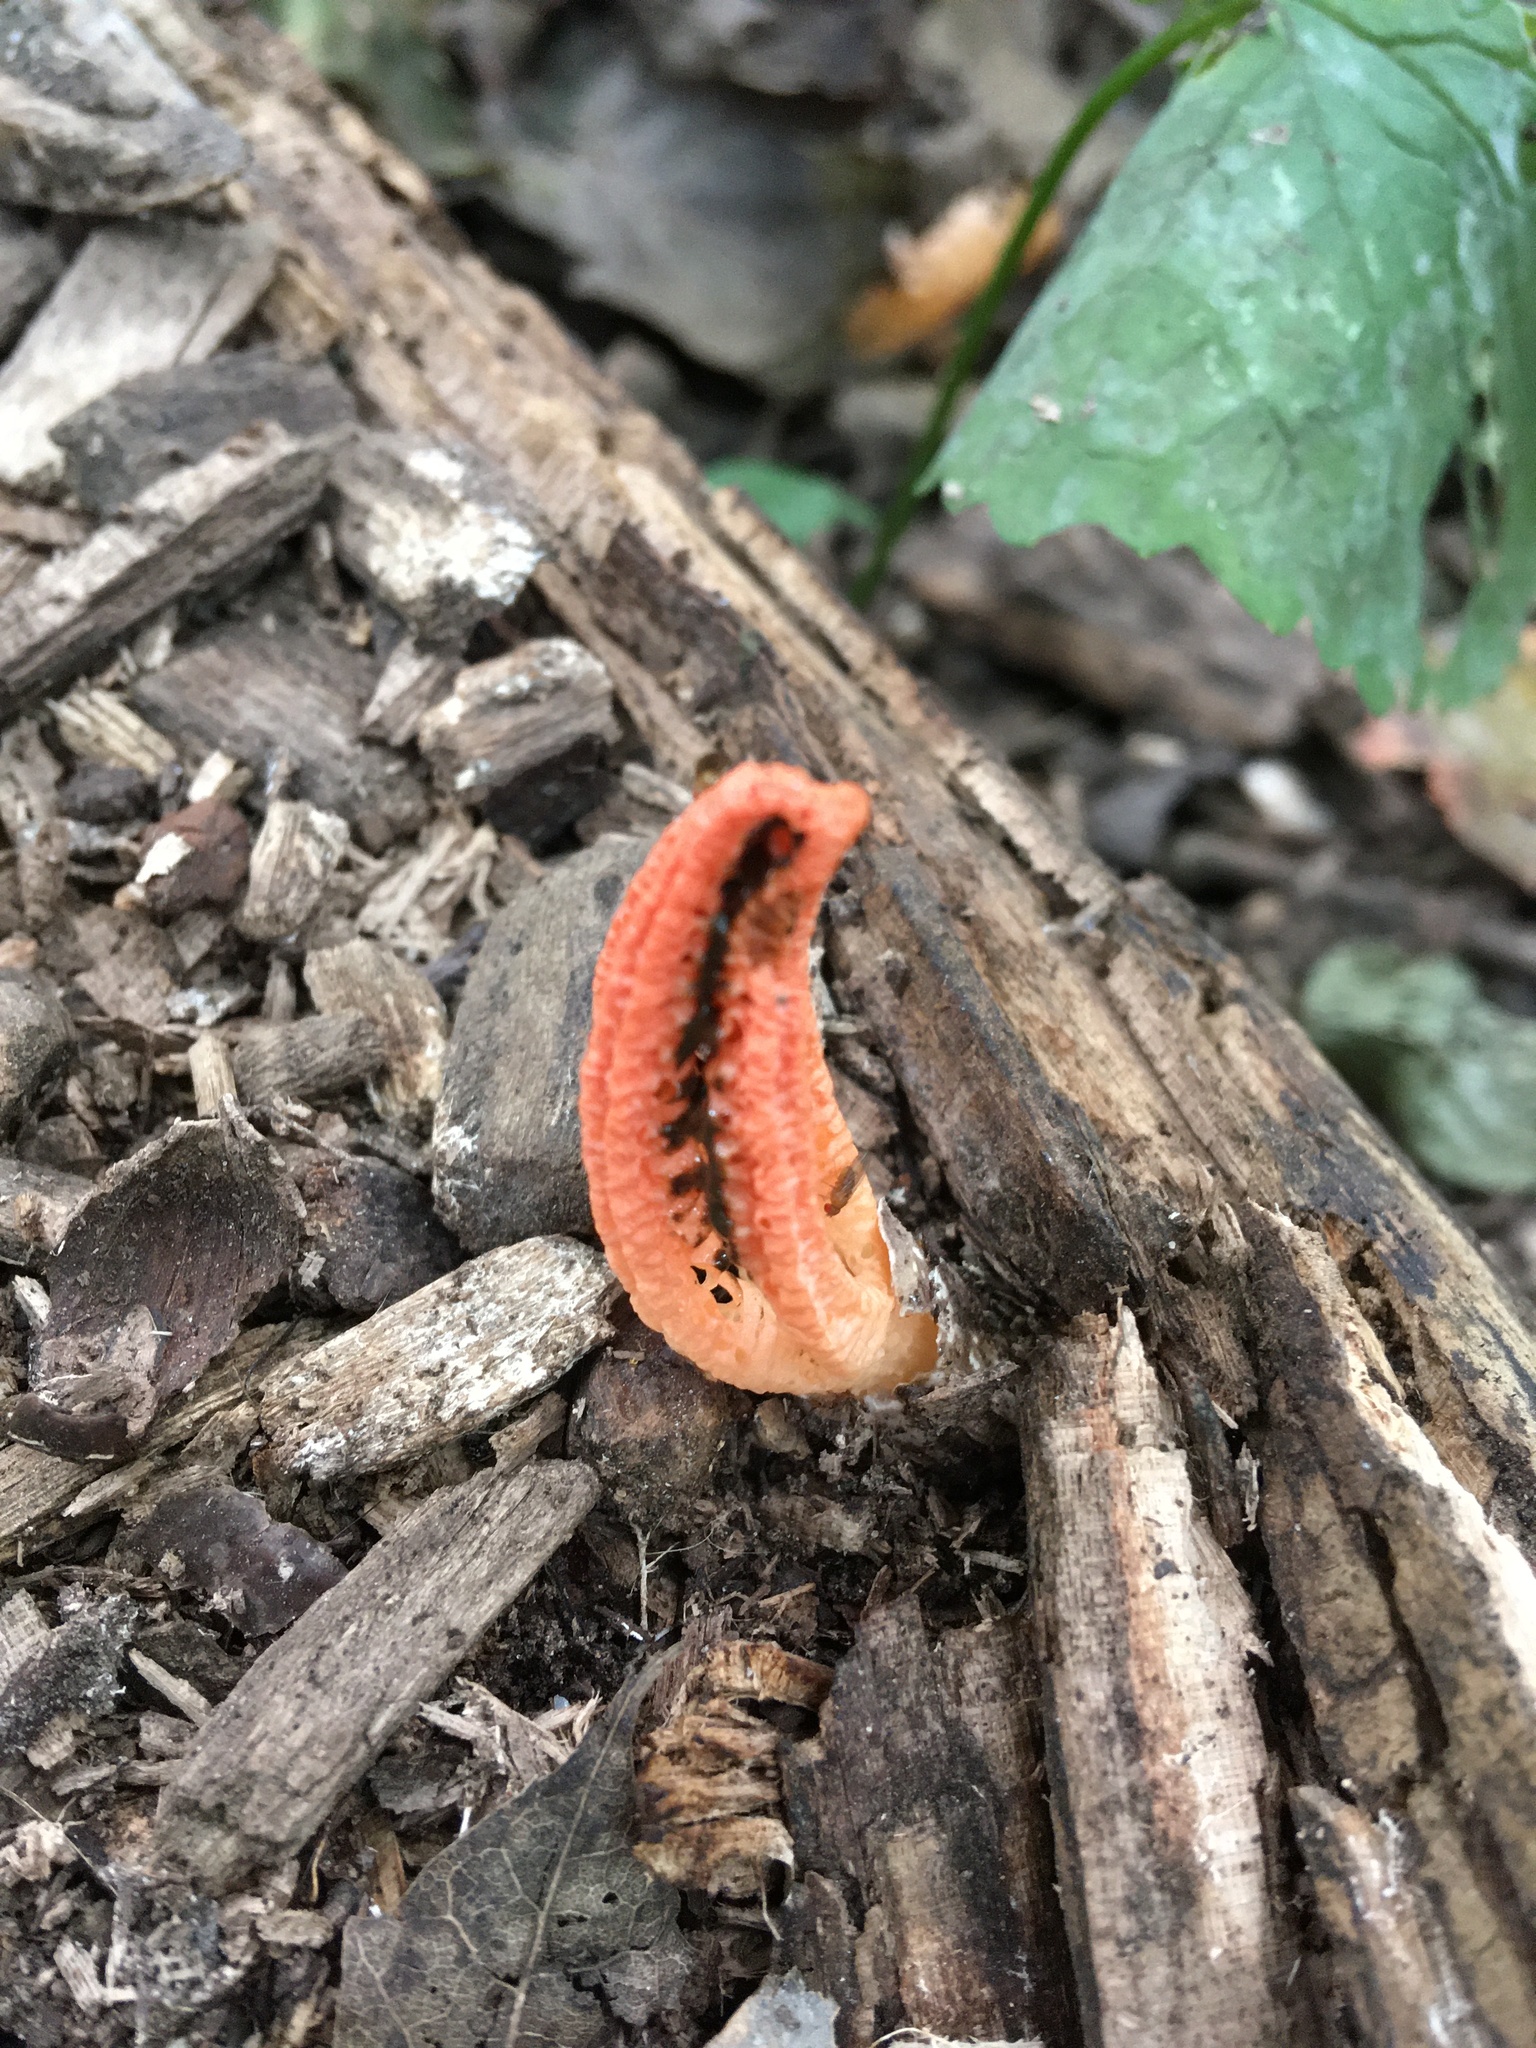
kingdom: Fungi
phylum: Basidiomycota
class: Agaricomycetes
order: Phallales
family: Phallaceae
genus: Pseudocolus
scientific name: Pseudocolus fusiformis
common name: Stinky squid
